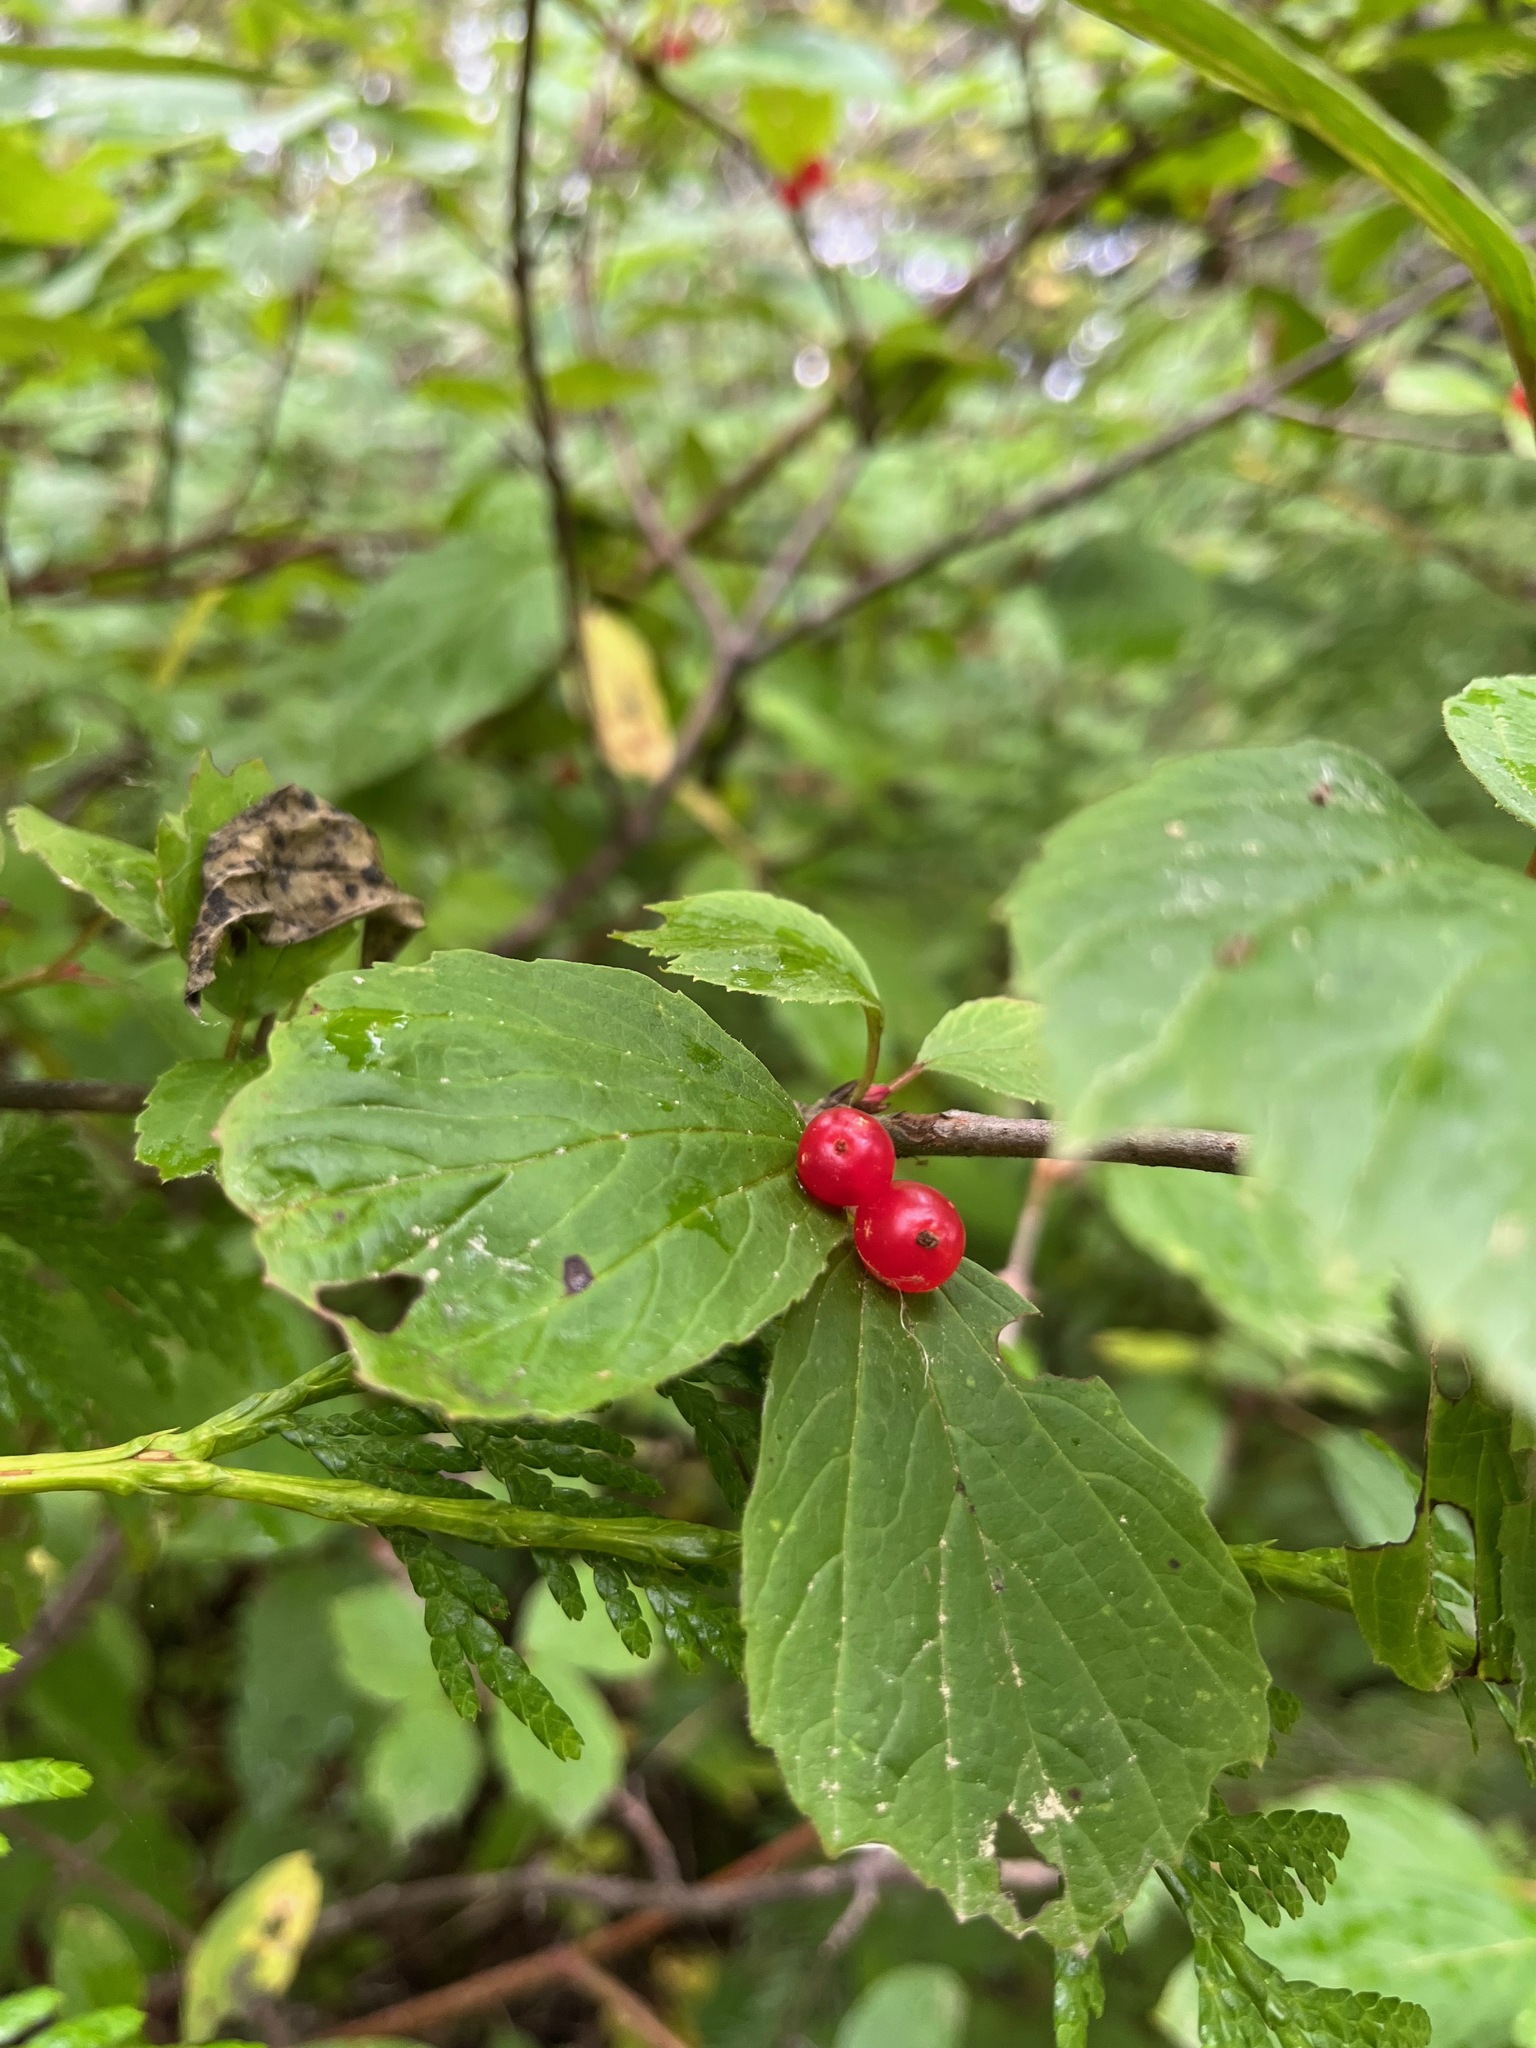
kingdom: Plantae
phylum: Tracheophyta
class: Magnoliopsida
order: Dipsacales
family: Viburnaceae
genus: Viburnum
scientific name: Viburnum edule
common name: Mooseberry
